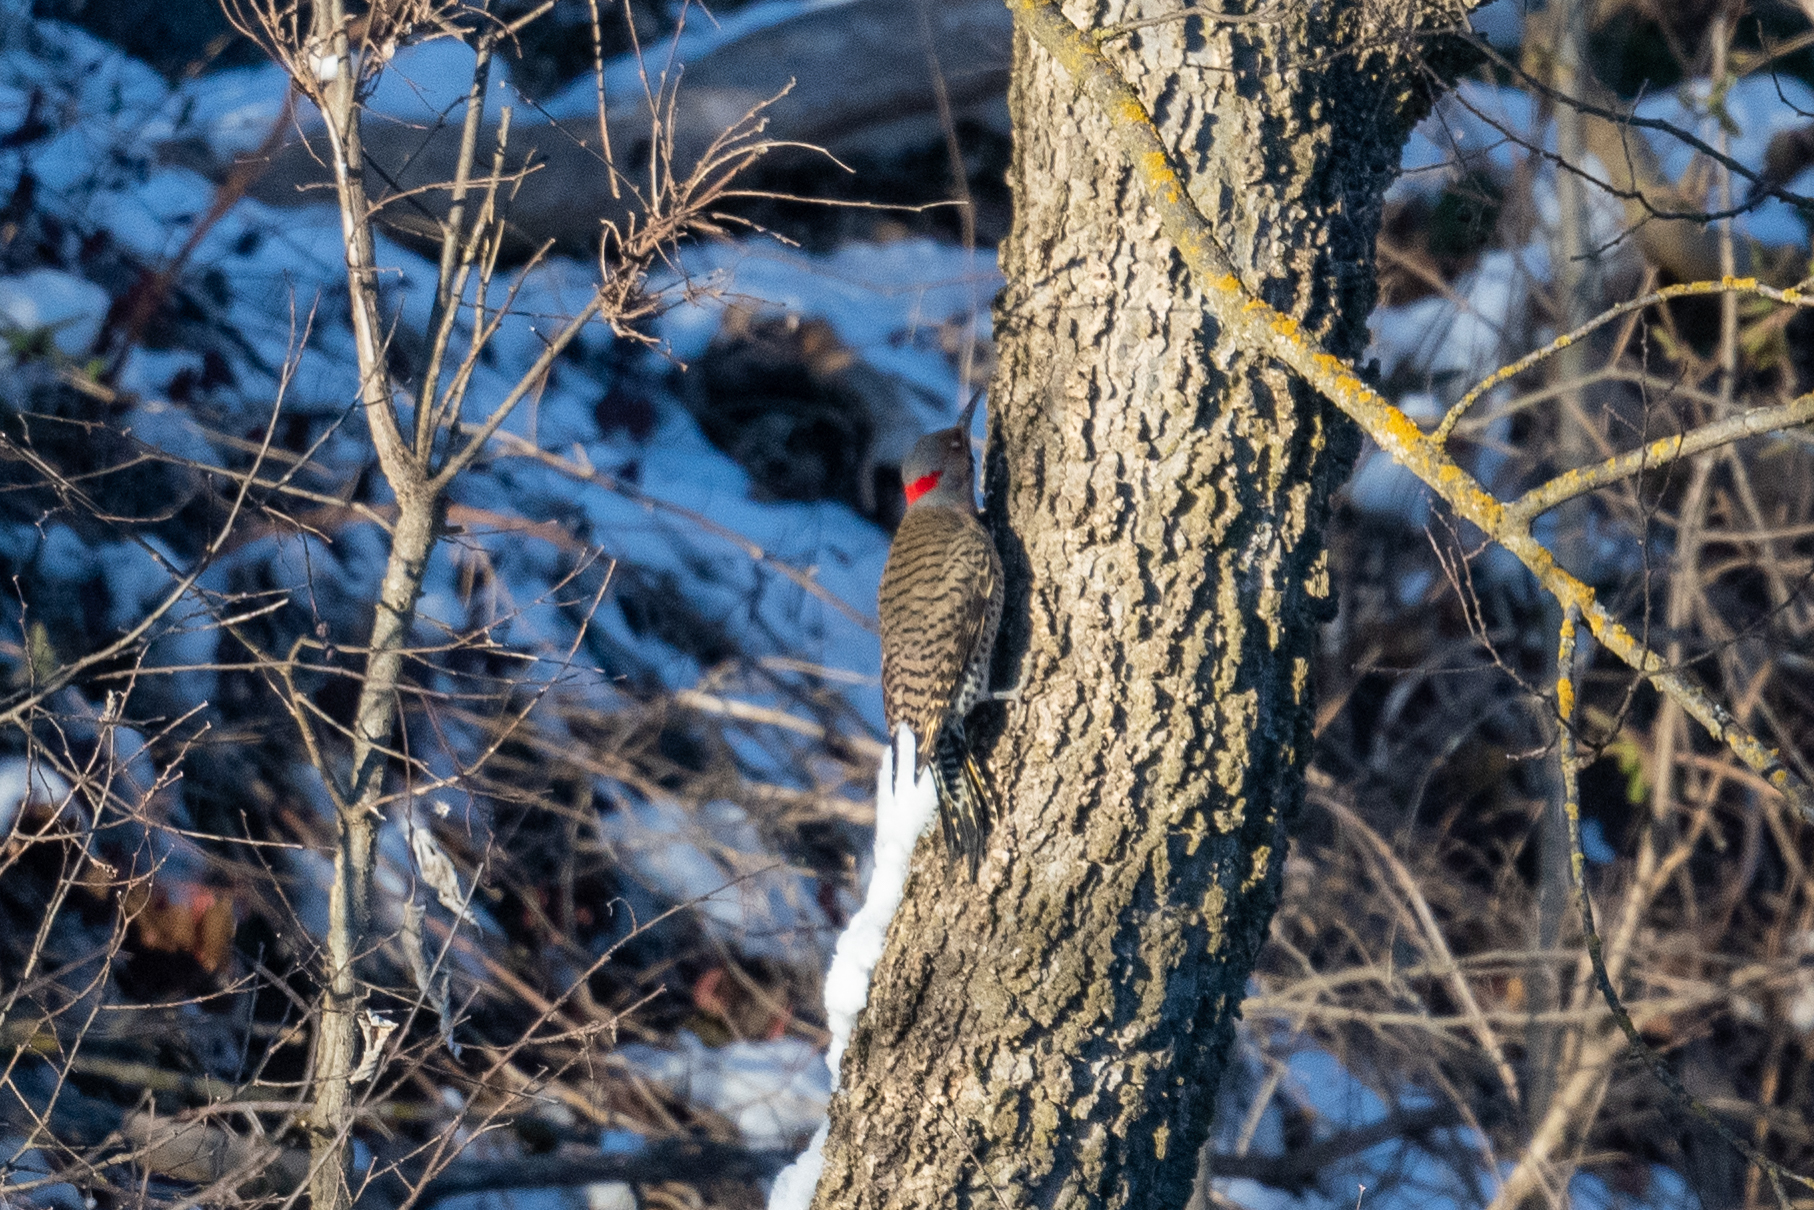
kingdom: Animalia
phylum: Chordata
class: Aves
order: Piciformes
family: Picidae
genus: Colaptes
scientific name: Colaptes auratus
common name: Northern flicker
